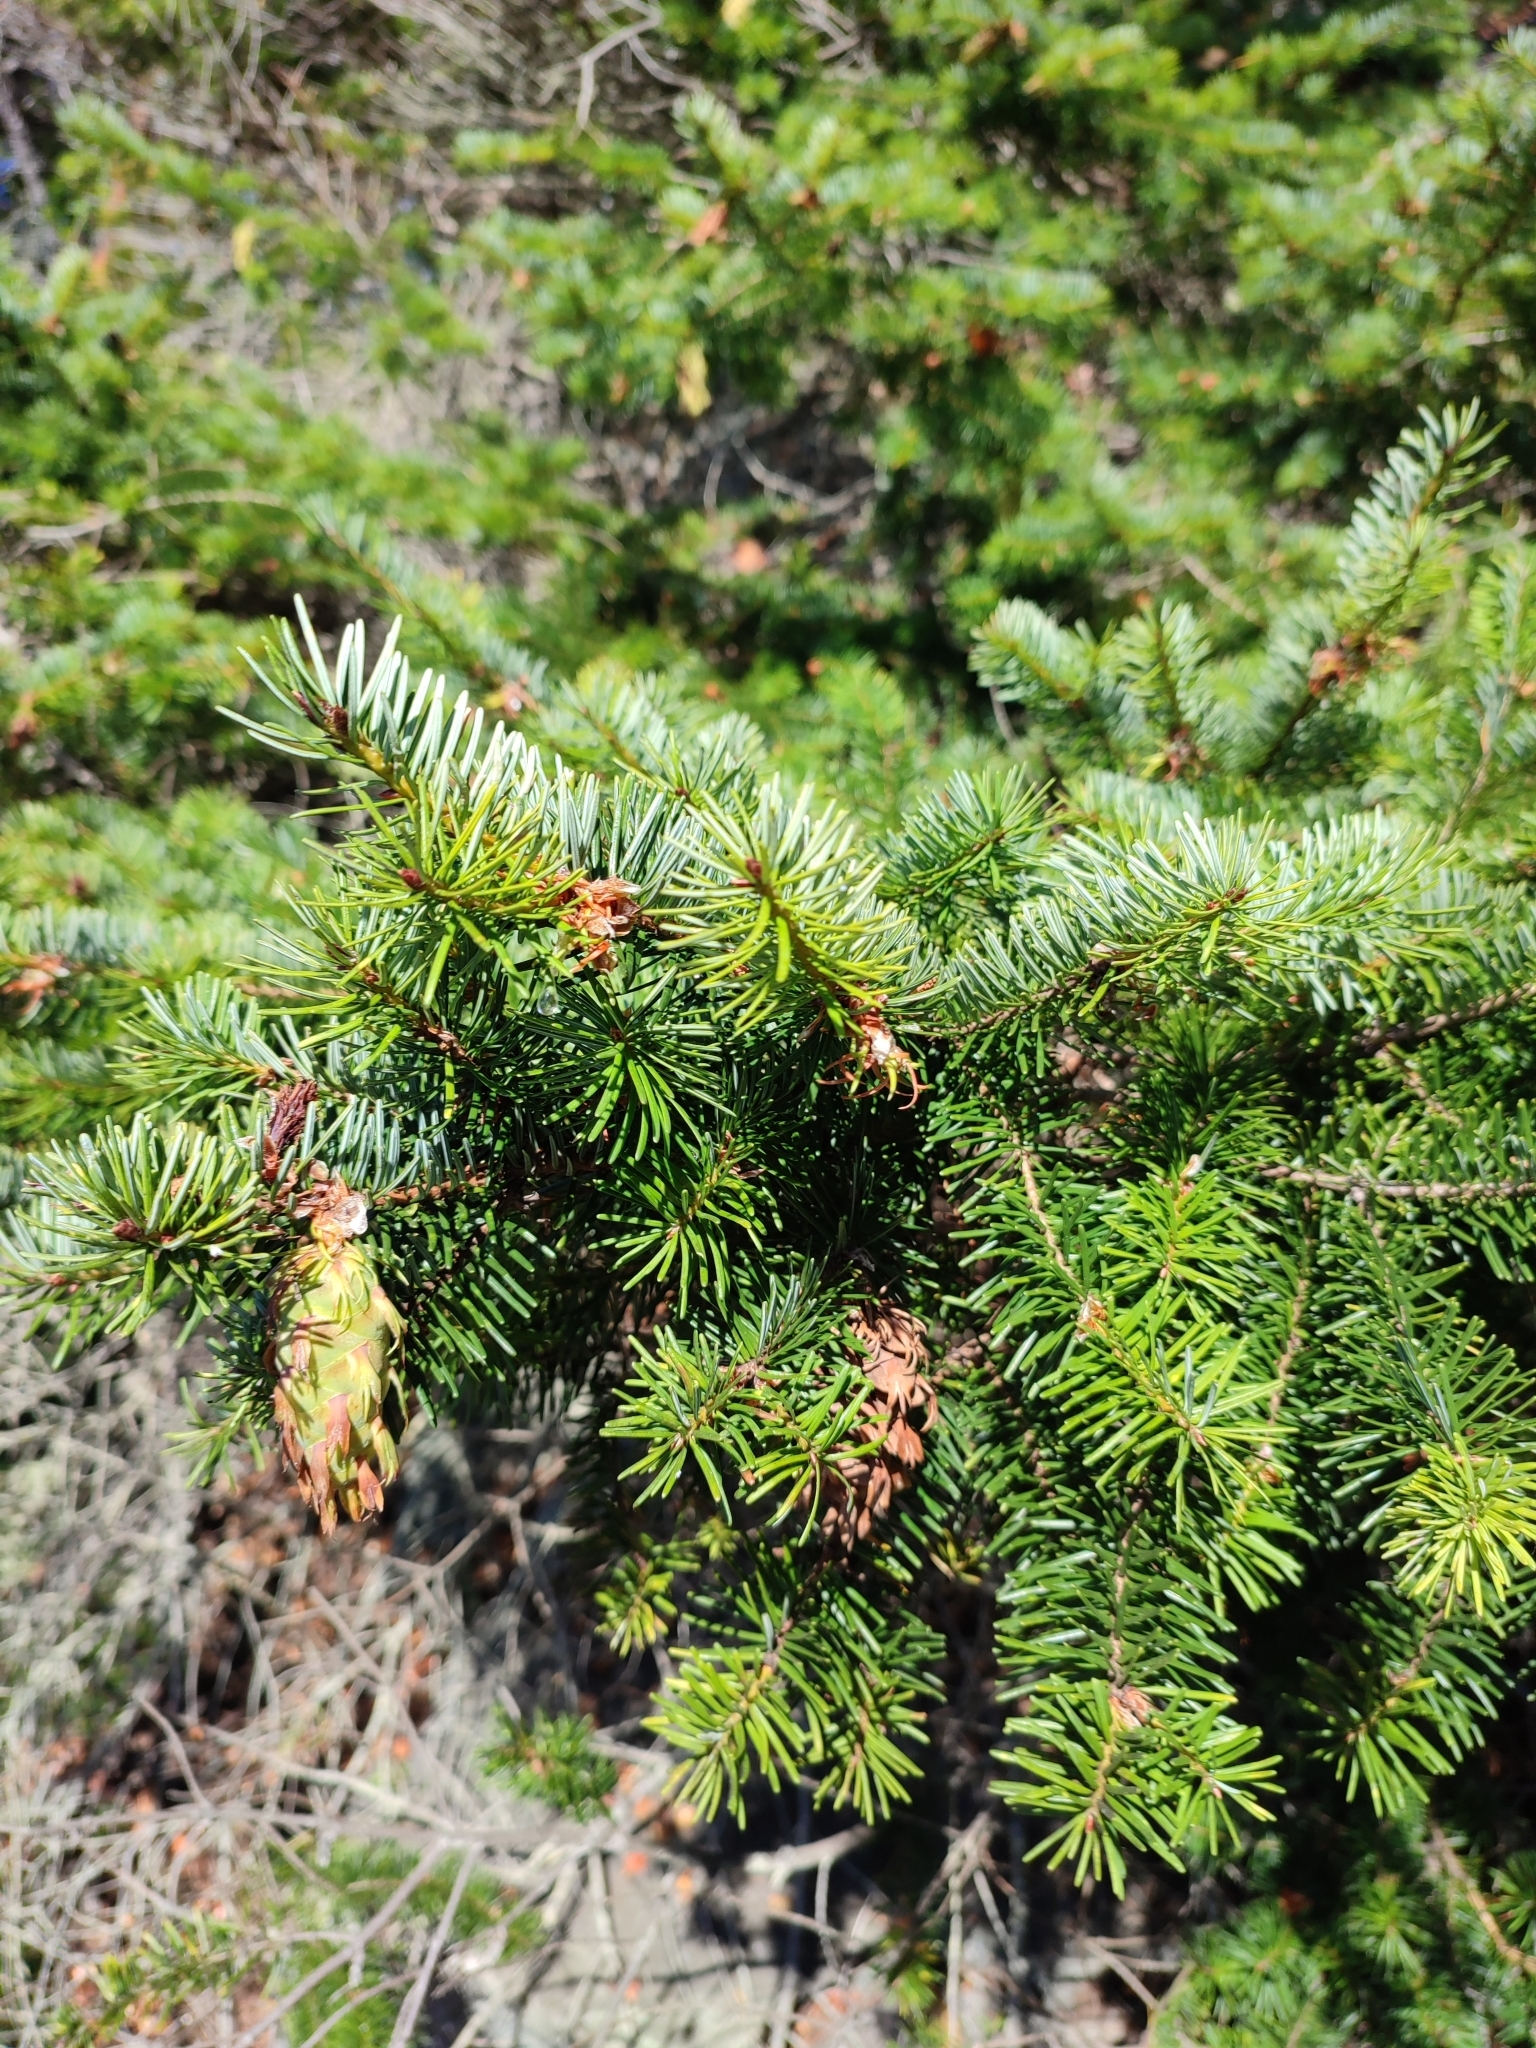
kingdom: Plantae
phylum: Tracheophyta
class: Pinopsida
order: Pinales
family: Pinaceae
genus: Pseudotsuga
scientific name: Pseudotsuga menziesii
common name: Douglas fir
